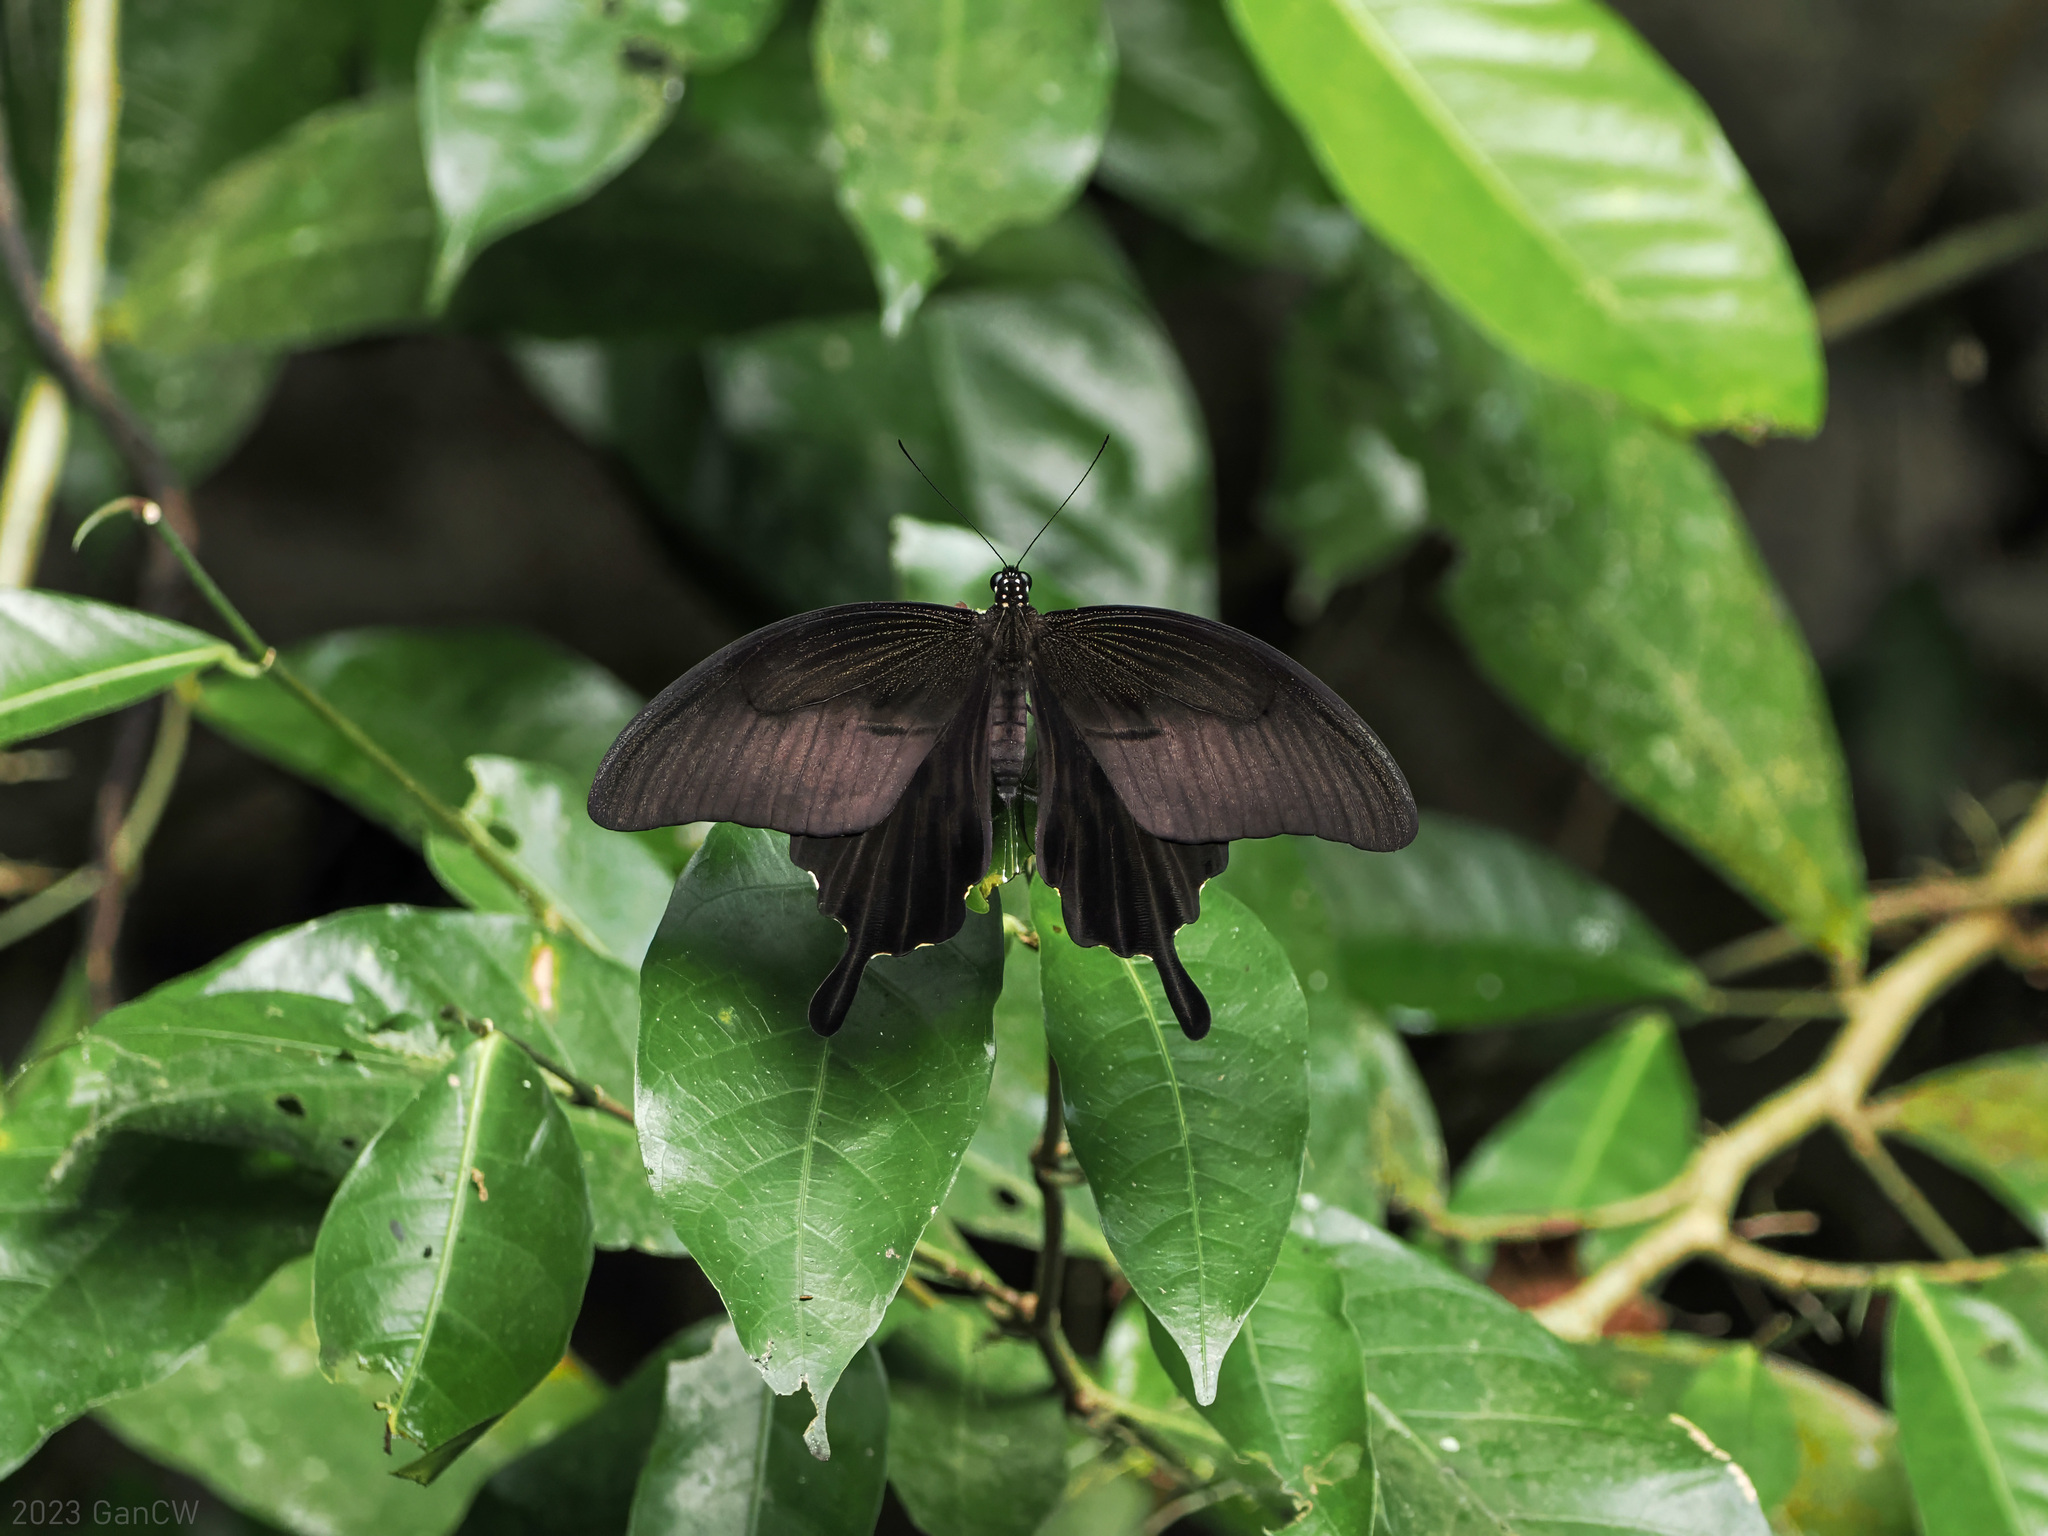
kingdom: Animalia
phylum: Arthropoda
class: Insecta
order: Lepidoptera
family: Papilionidae
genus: Papilio
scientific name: Papilio sataspes
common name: Sulawesi red helen
